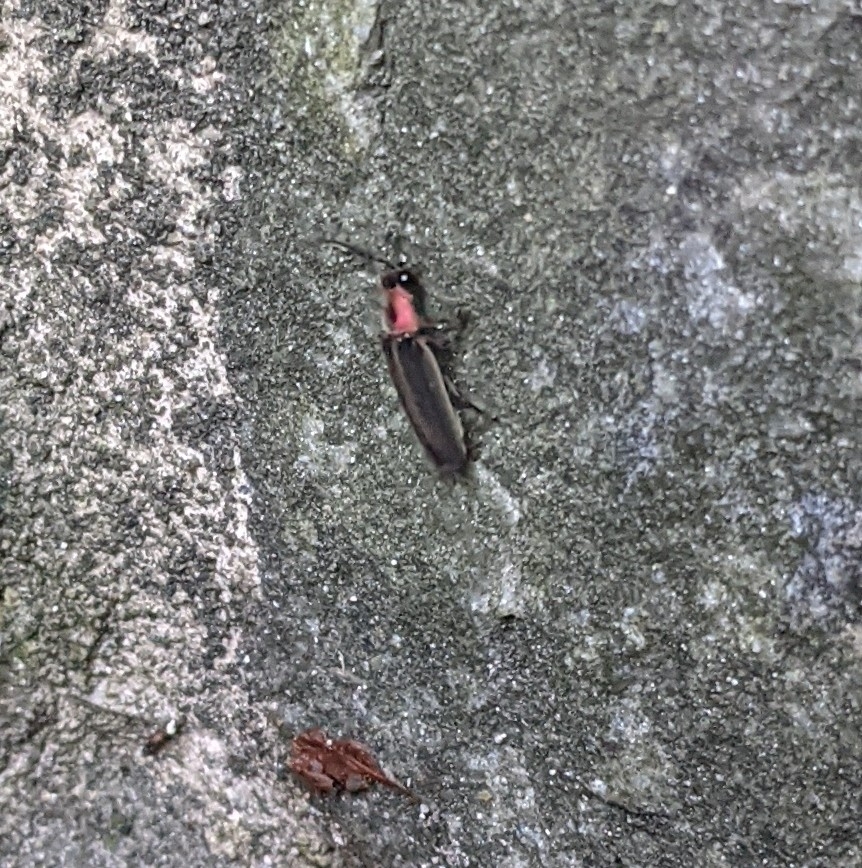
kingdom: Animalia
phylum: Arthropoda
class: Insecta
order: Coleoptera
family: Lampyridae
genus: Photinus
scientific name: Photinus pyralis
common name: Big dipper firefly
